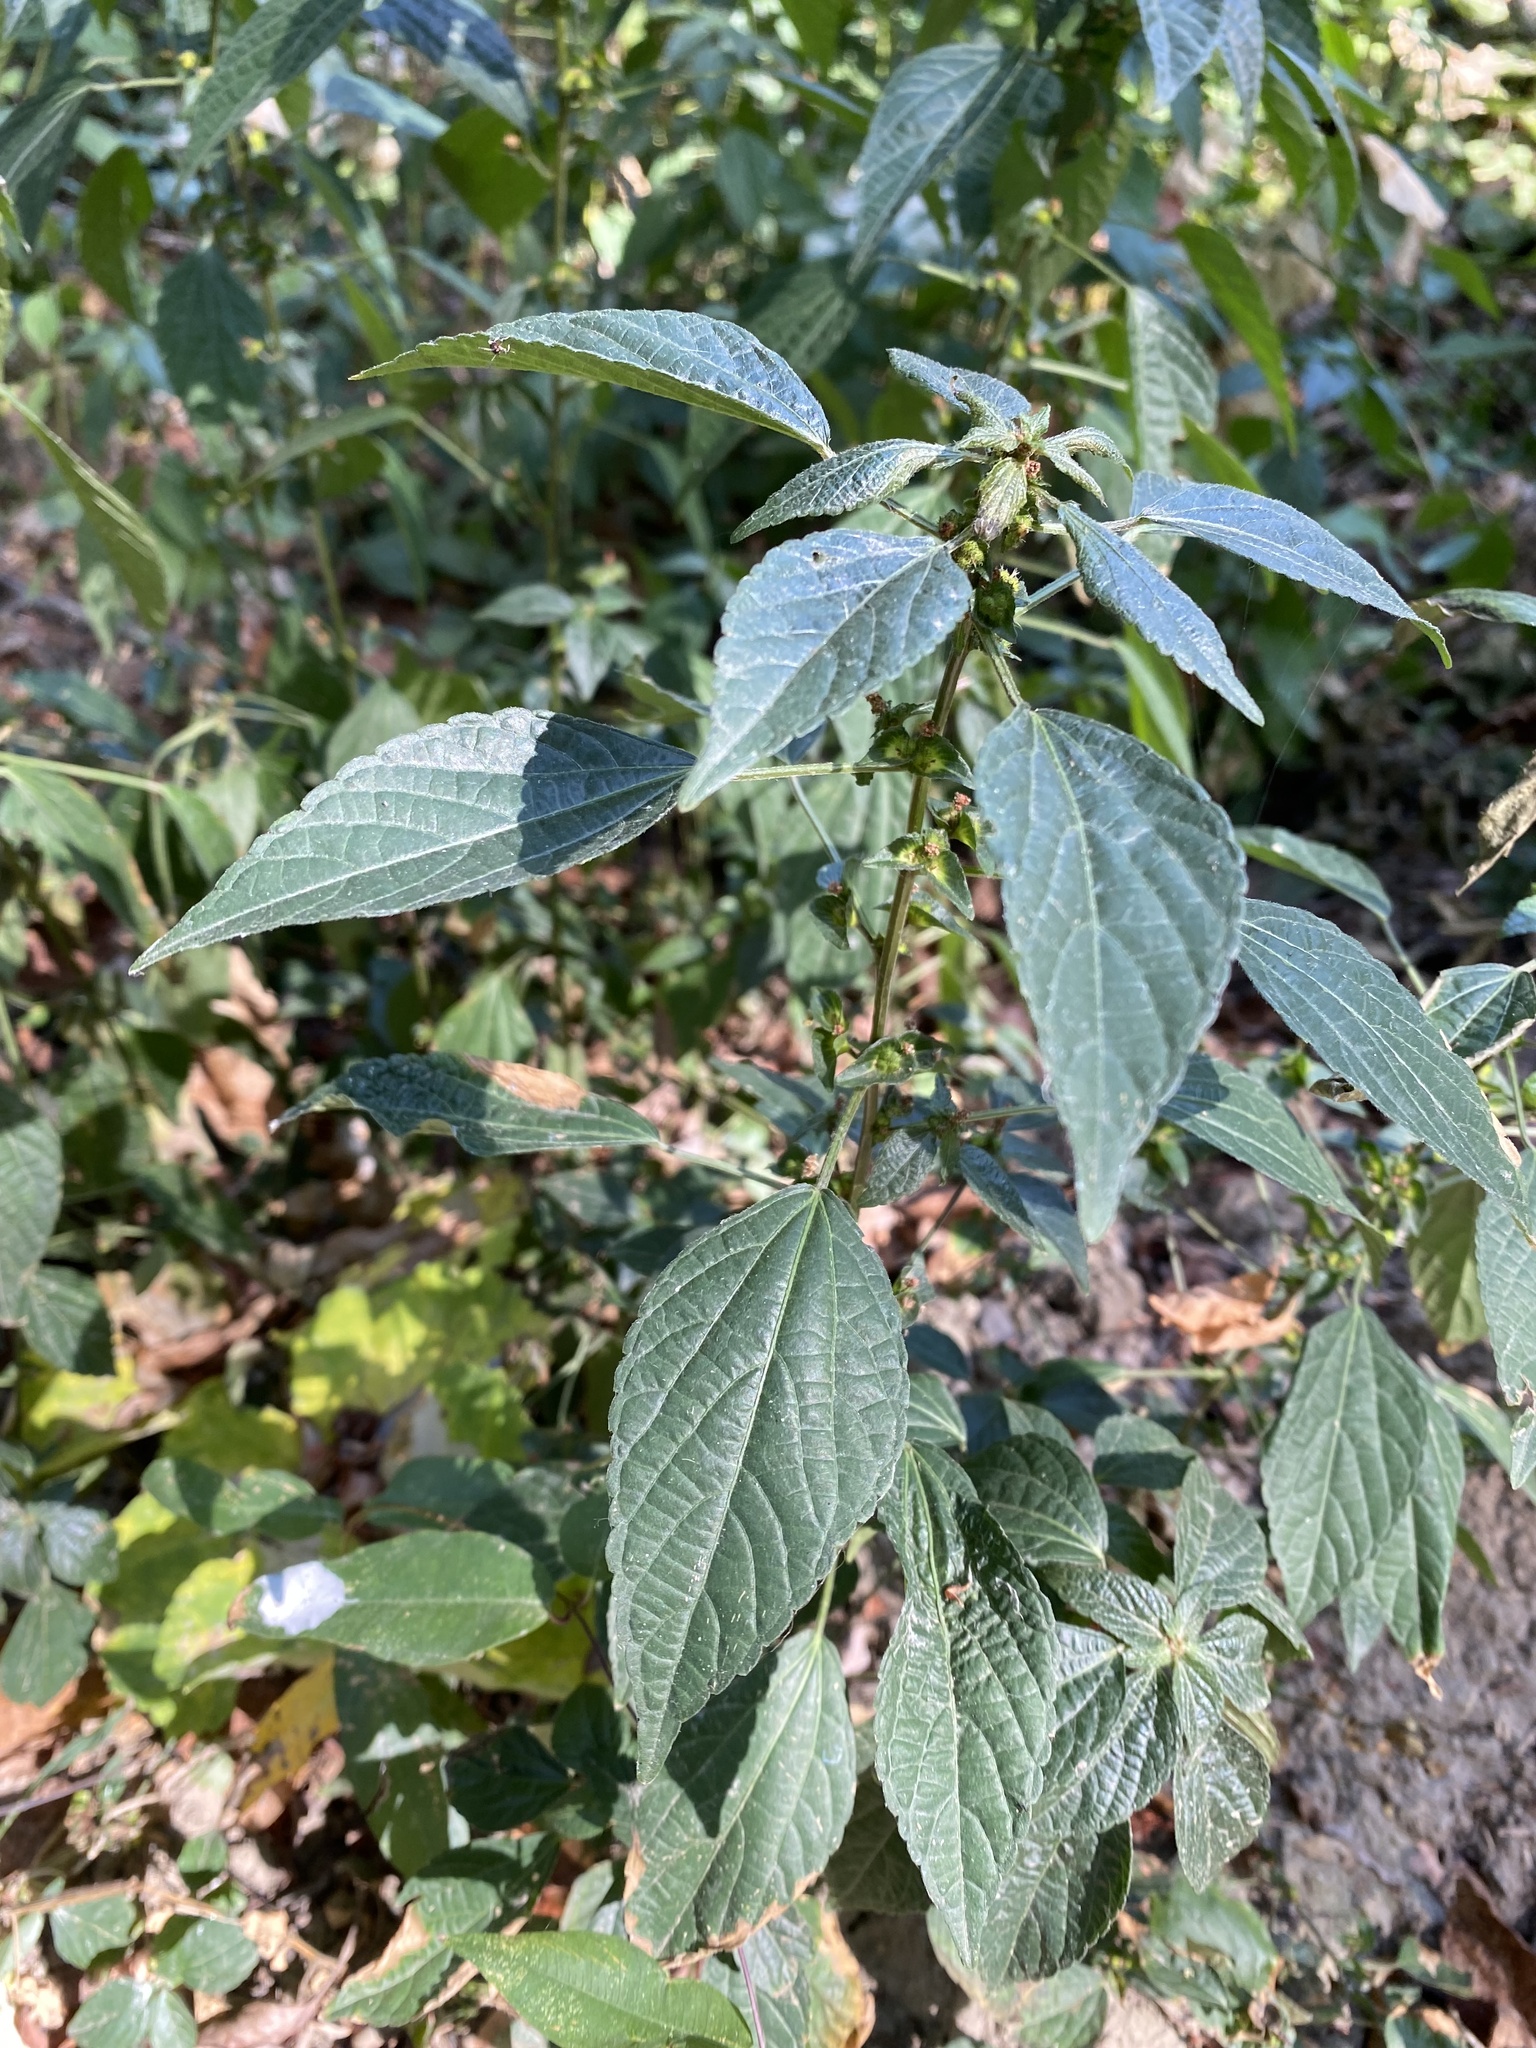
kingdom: Plantae
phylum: Tracheophyta
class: Magnoliopsida
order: Malpighiales
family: Euphorbiaceae
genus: Acalypha
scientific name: Acalypha australis
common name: Asian copperleaf
